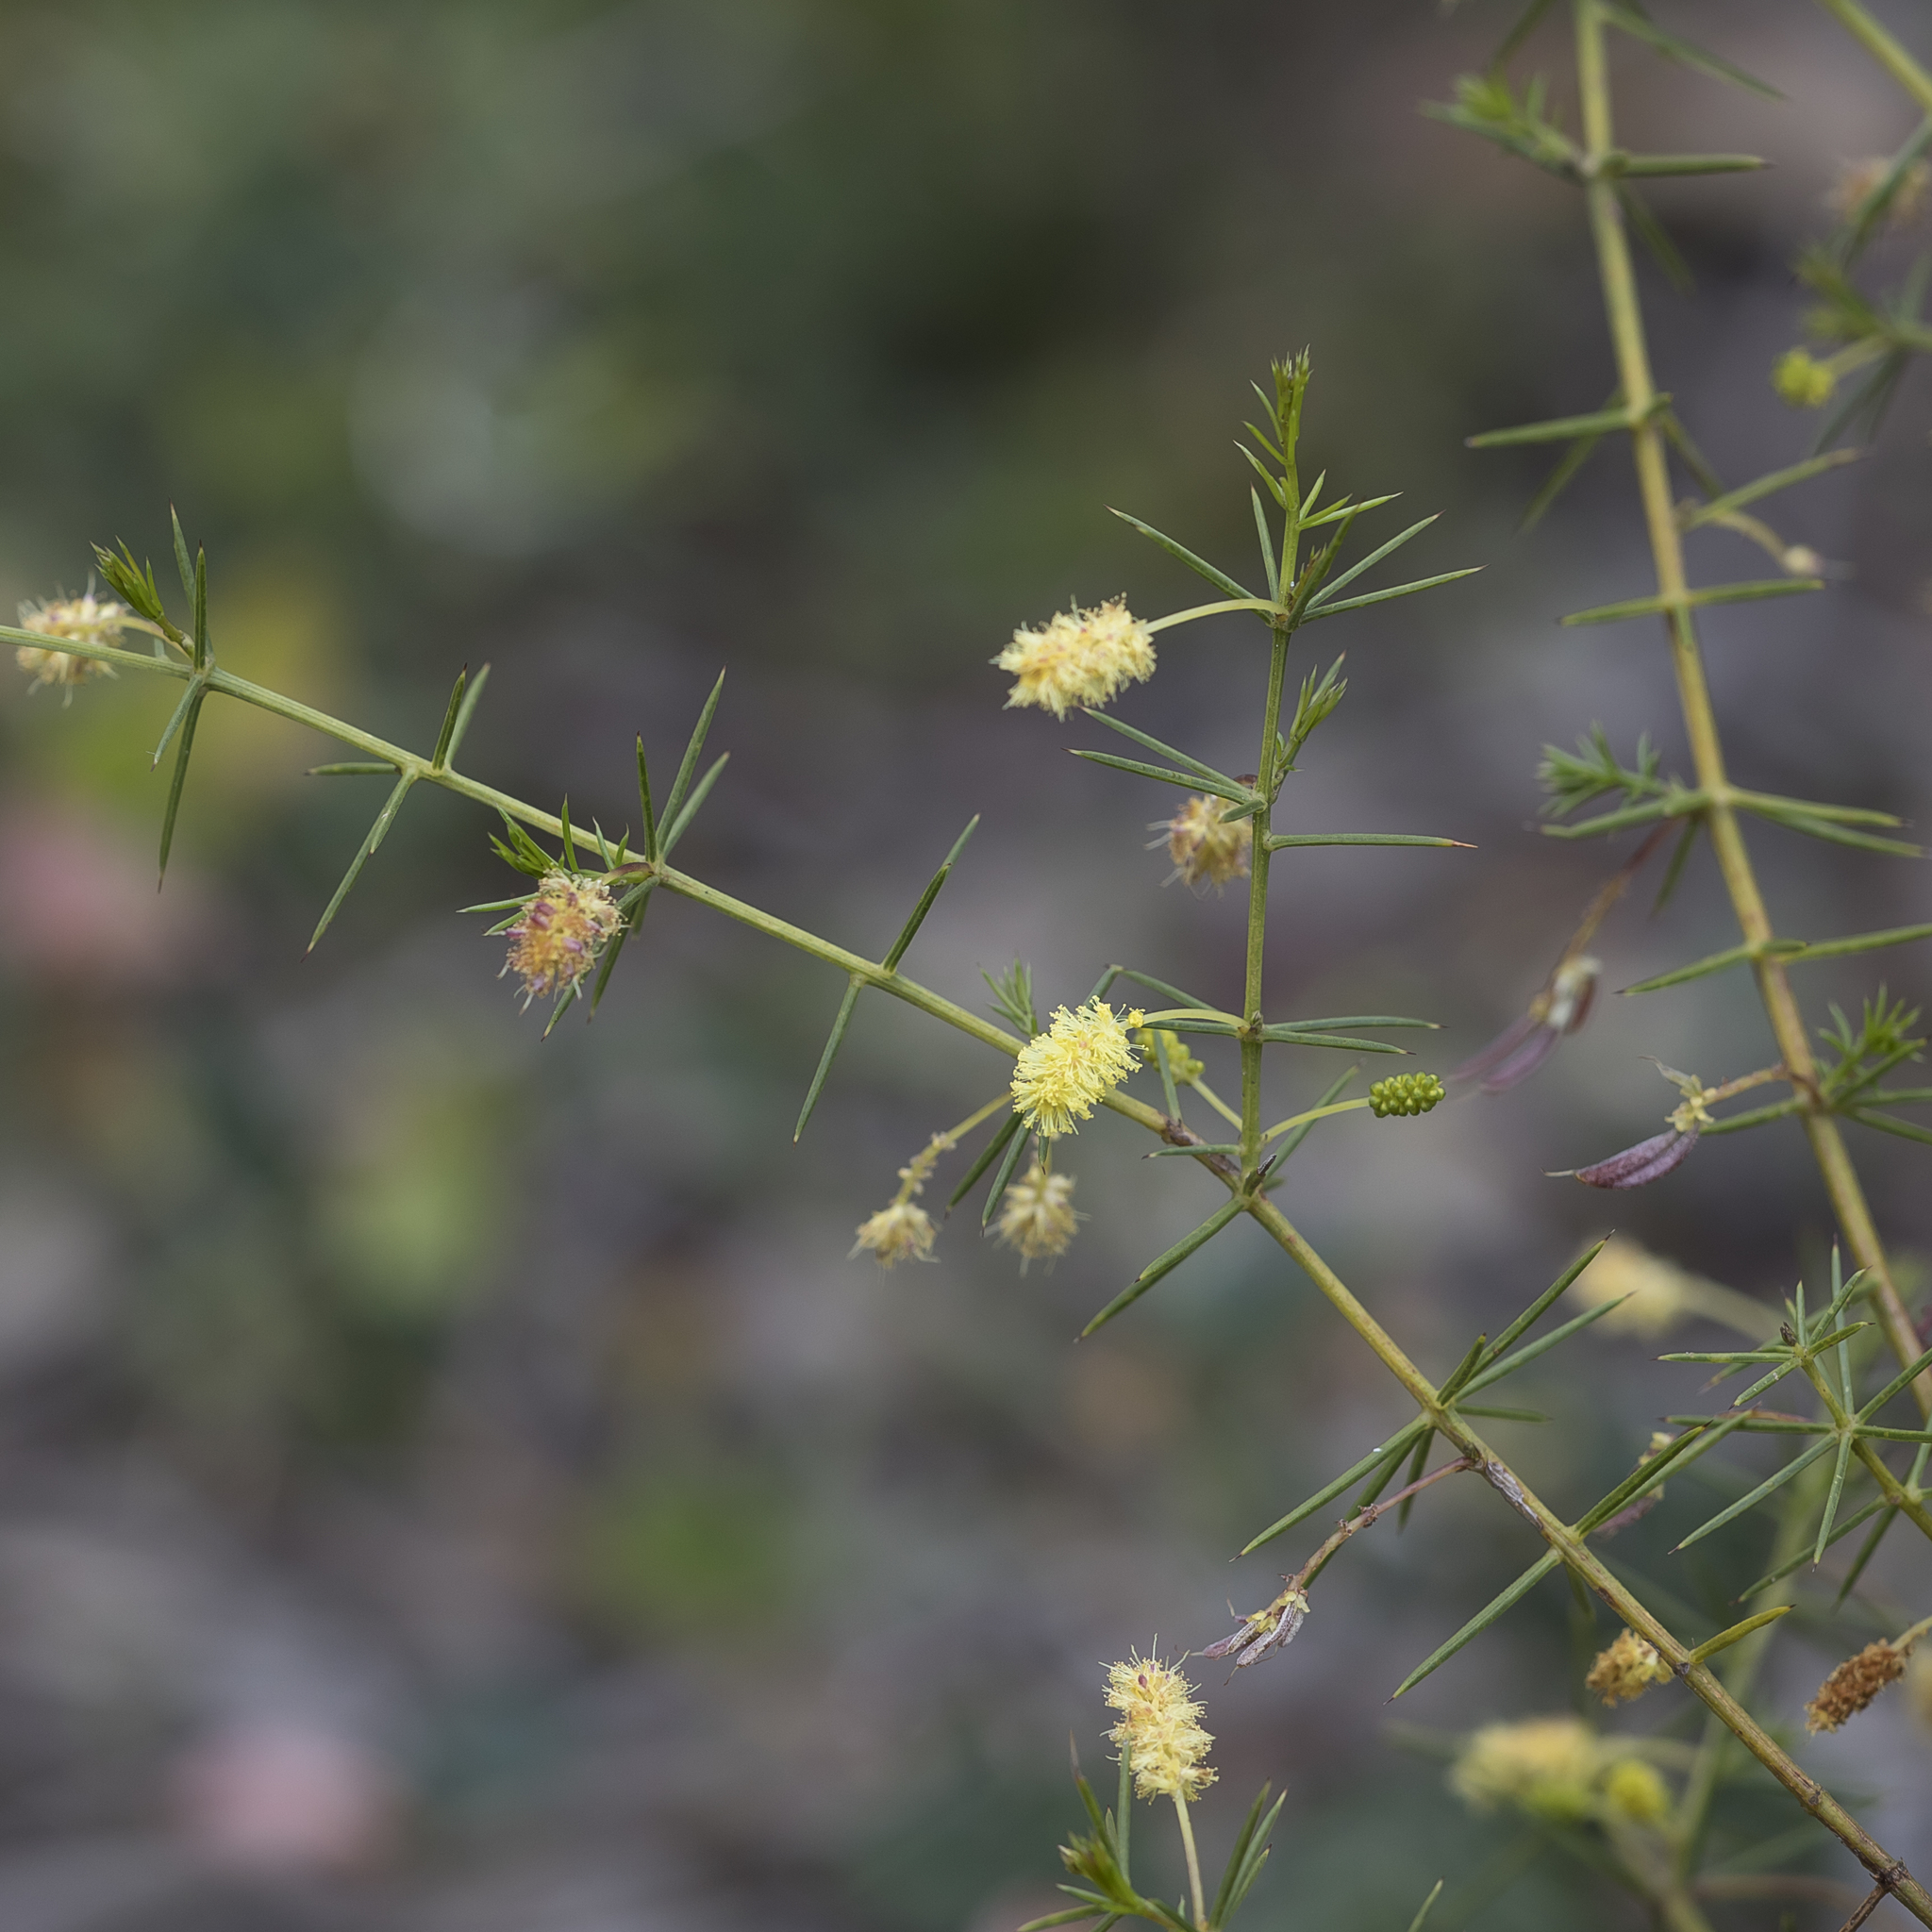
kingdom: Plantae
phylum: Tracheophyta
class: Magnoliopsida
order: Fabales
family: Fabaceae
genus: Acacia
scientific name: Acacia verticillata
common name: Prickly moses
